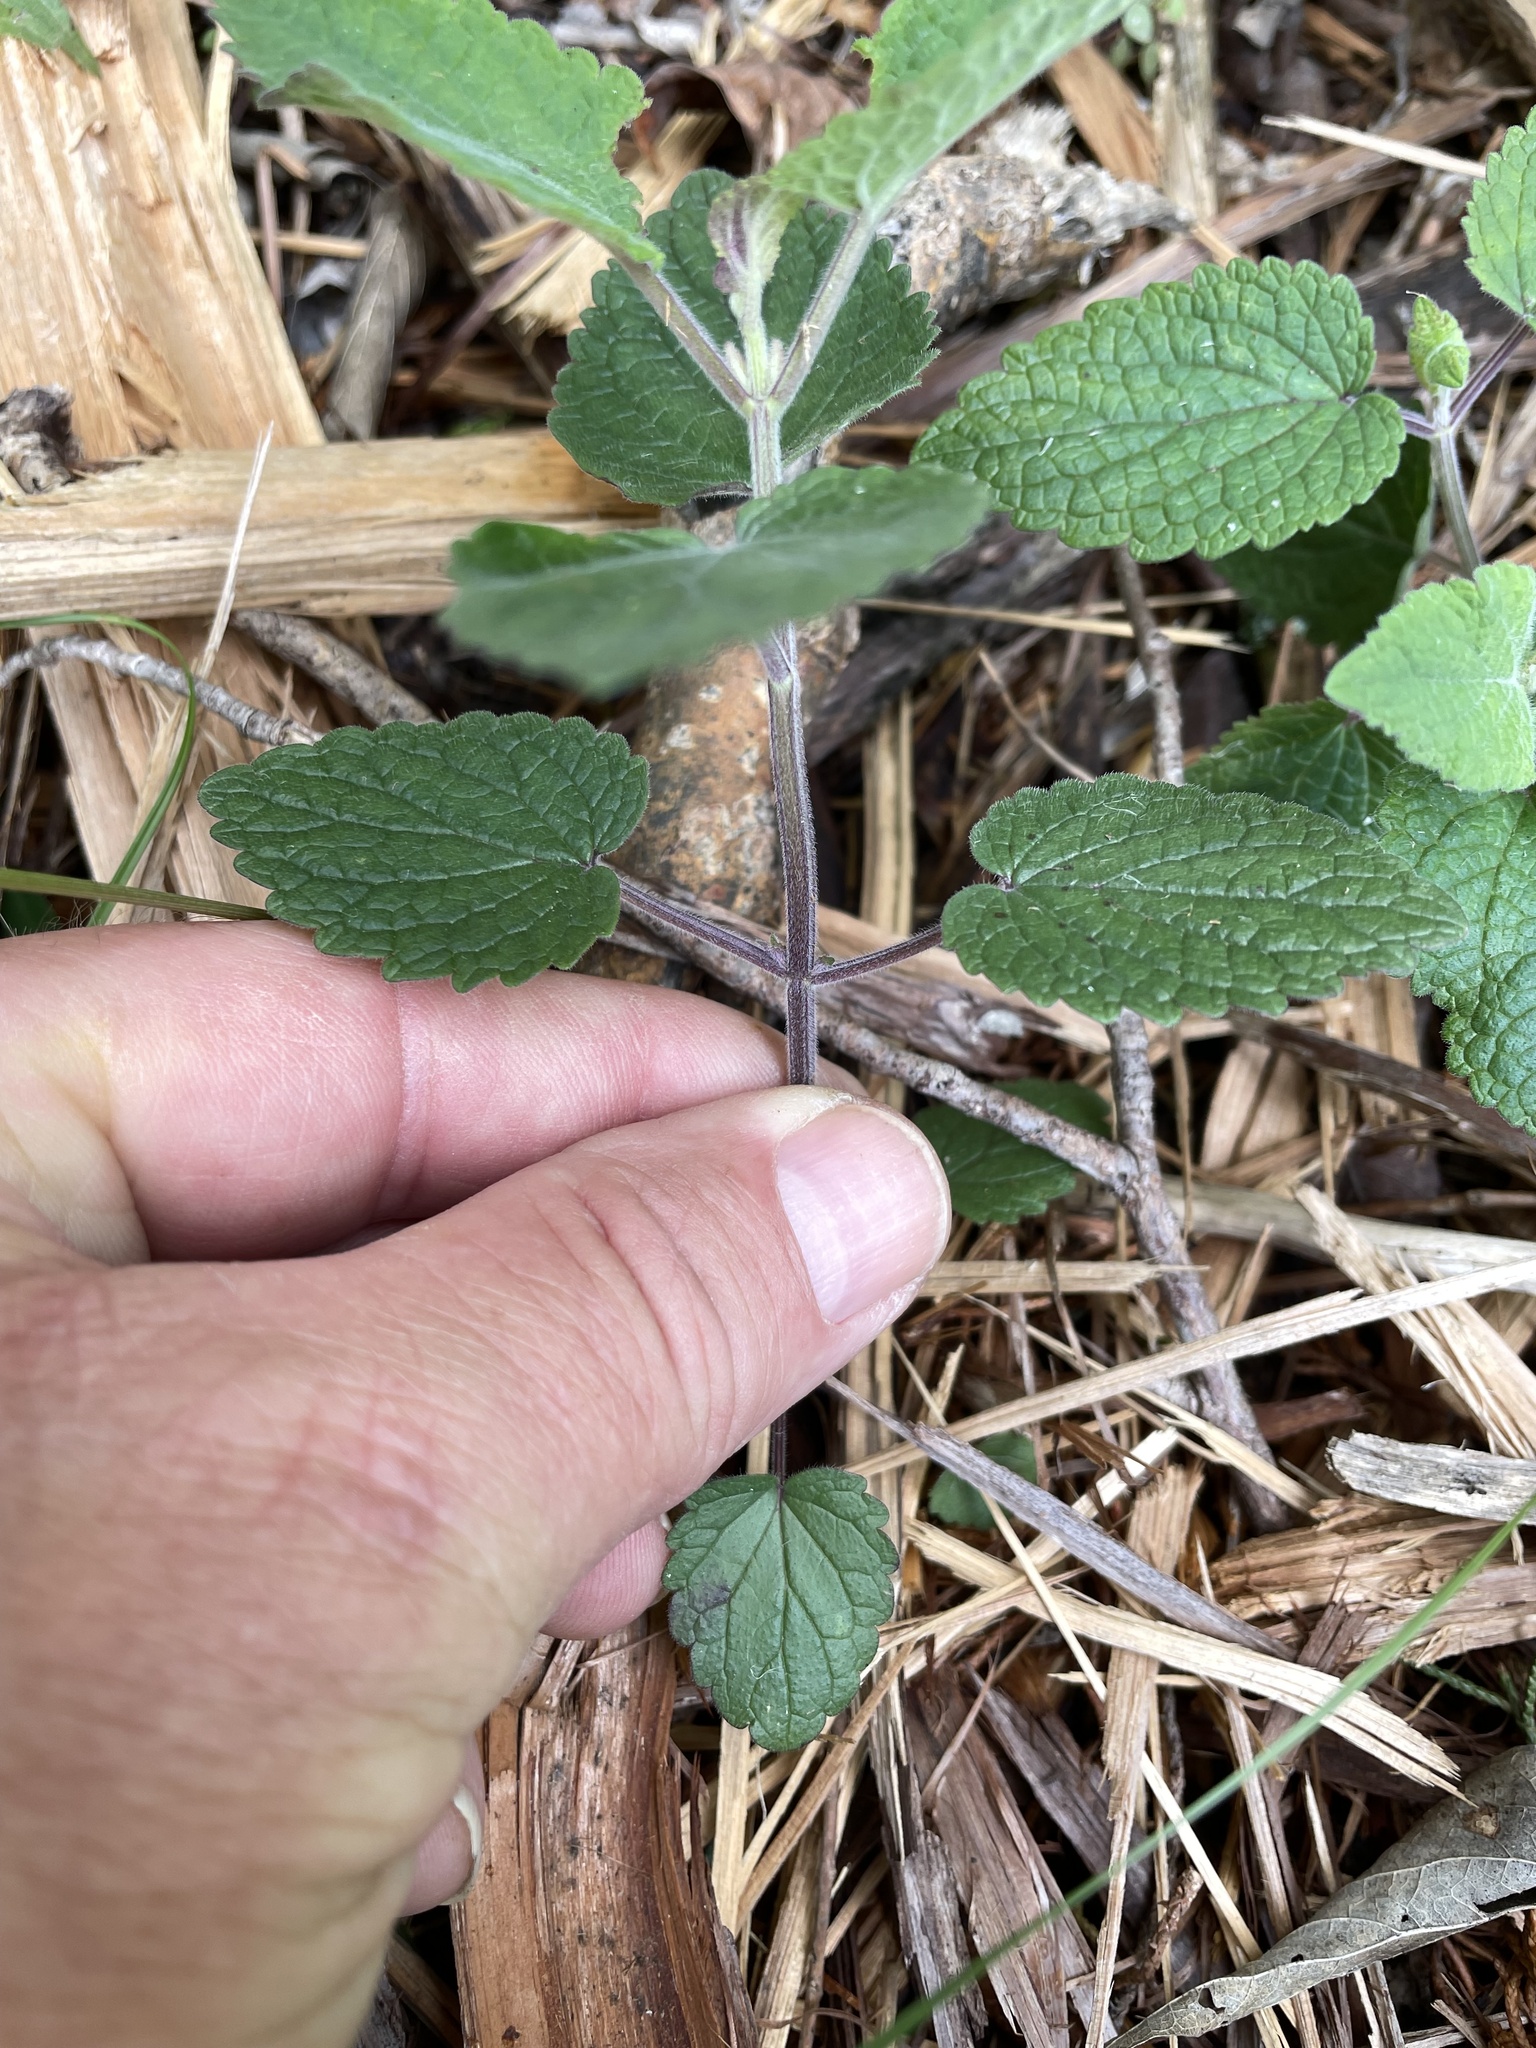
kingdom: Plantae
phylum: Tracheophyta
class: Magnoliopsida
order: Lamiales
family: Lamiaceae
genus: Scutellaria
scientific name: Scutellaria ovata
